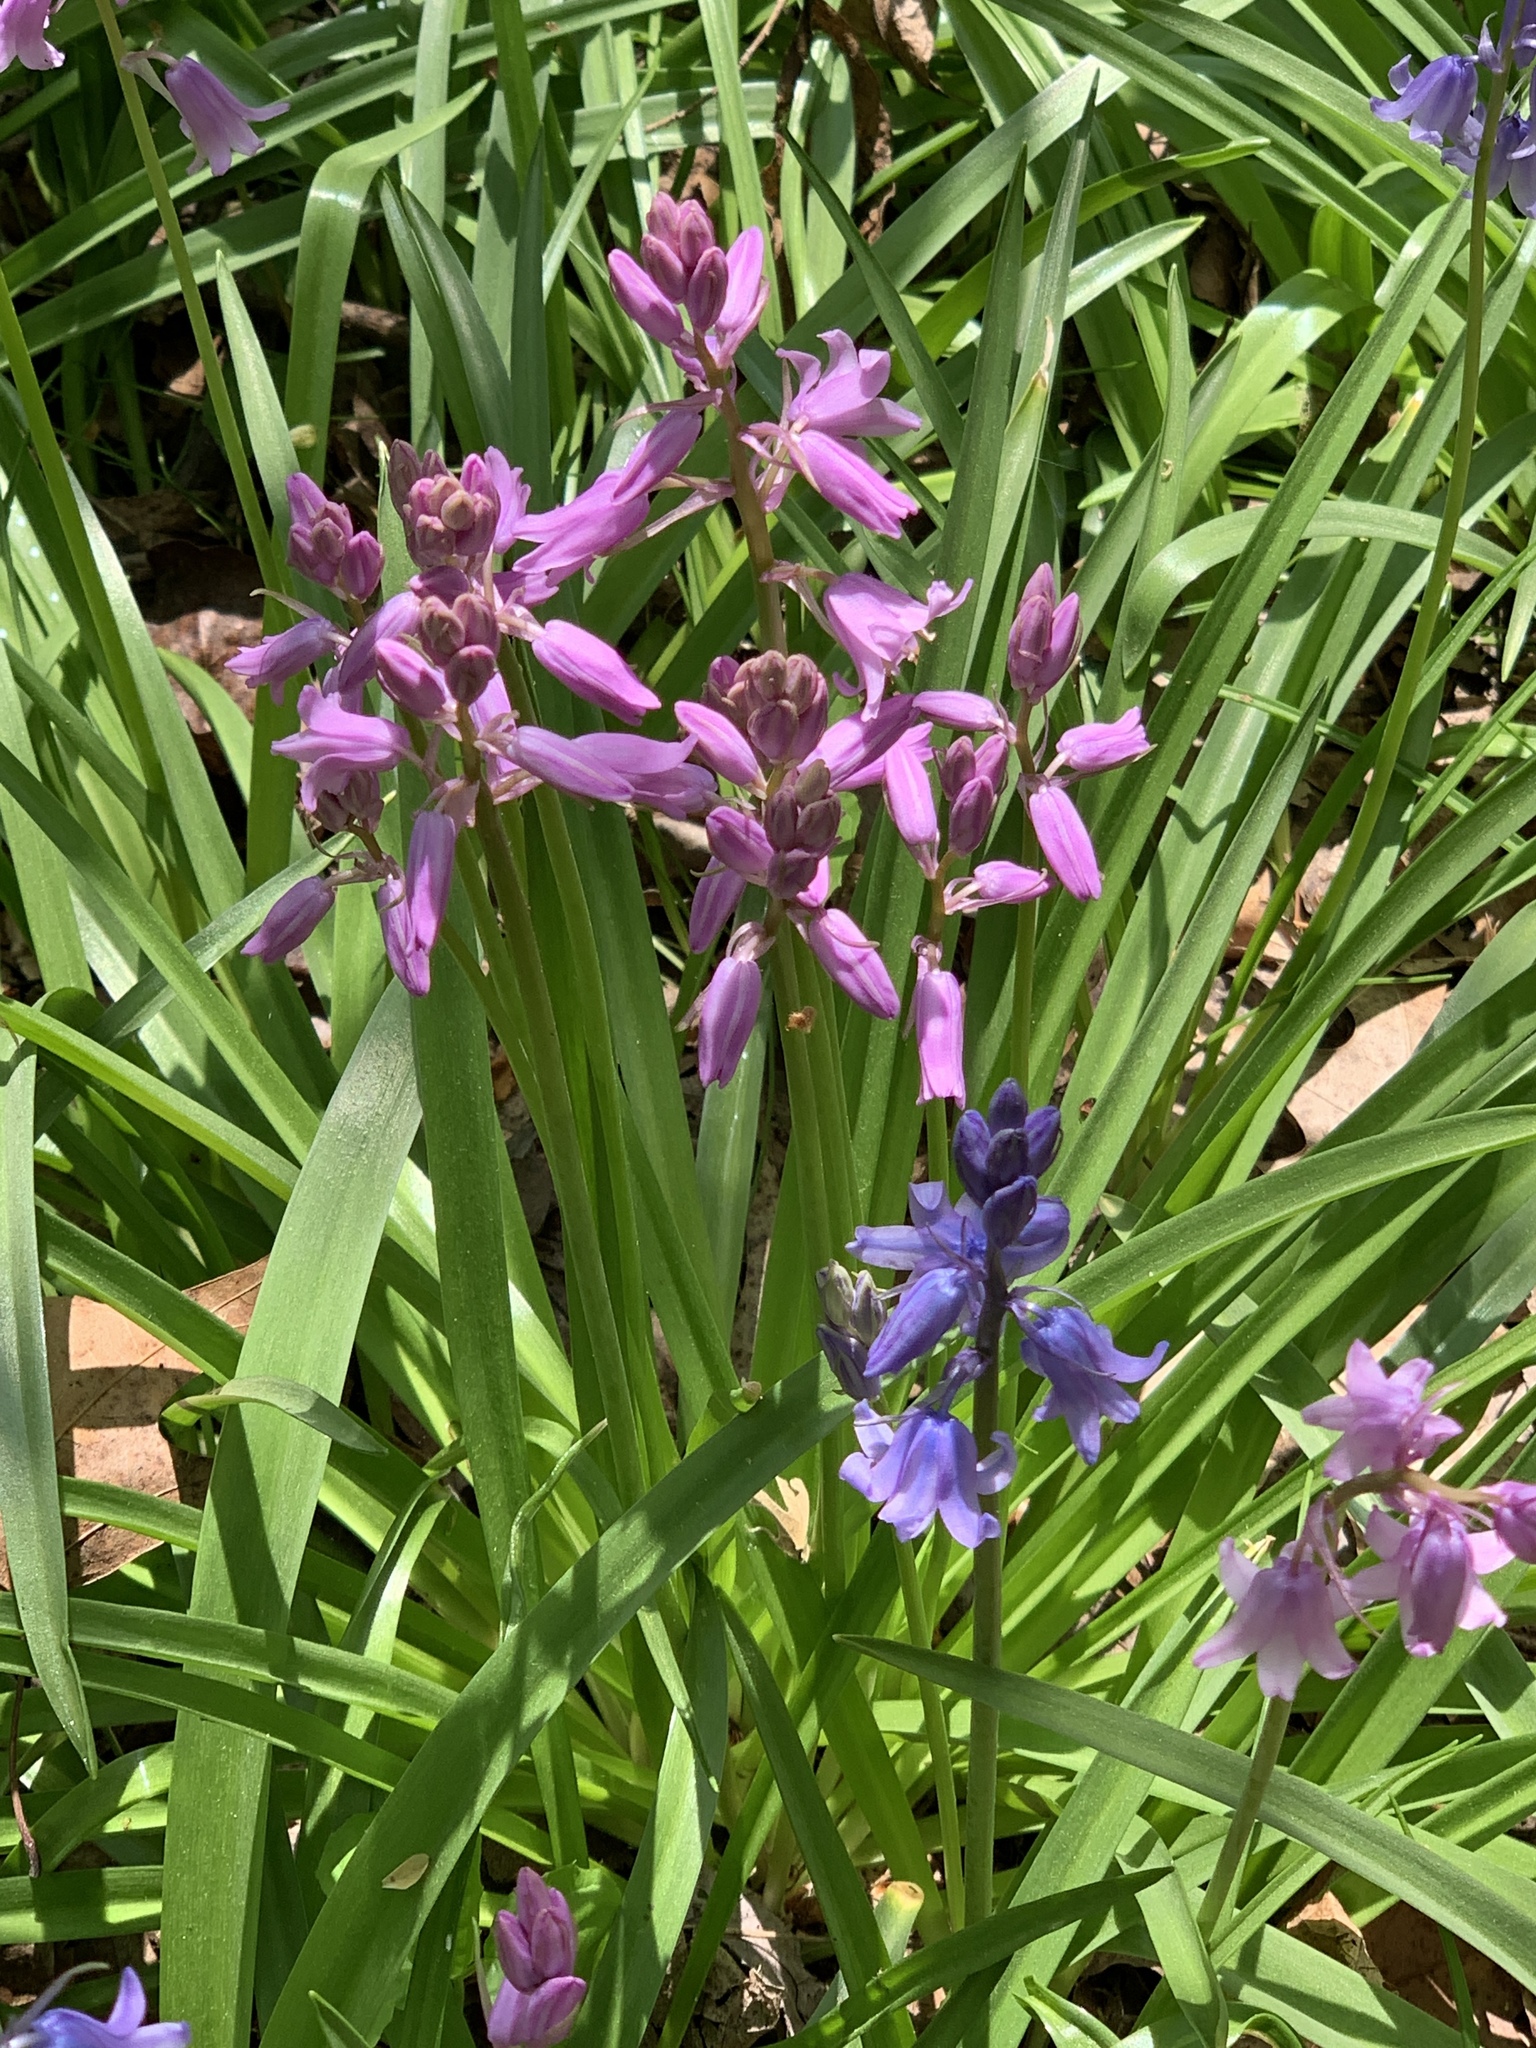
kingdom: Plantae
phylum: Tracheophyta
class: Liliopsida
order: Asparagales
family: Asparagaceae
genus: Hyacinthoides
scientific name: Hyacinthoides hispanica
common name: Spanish bluebell
